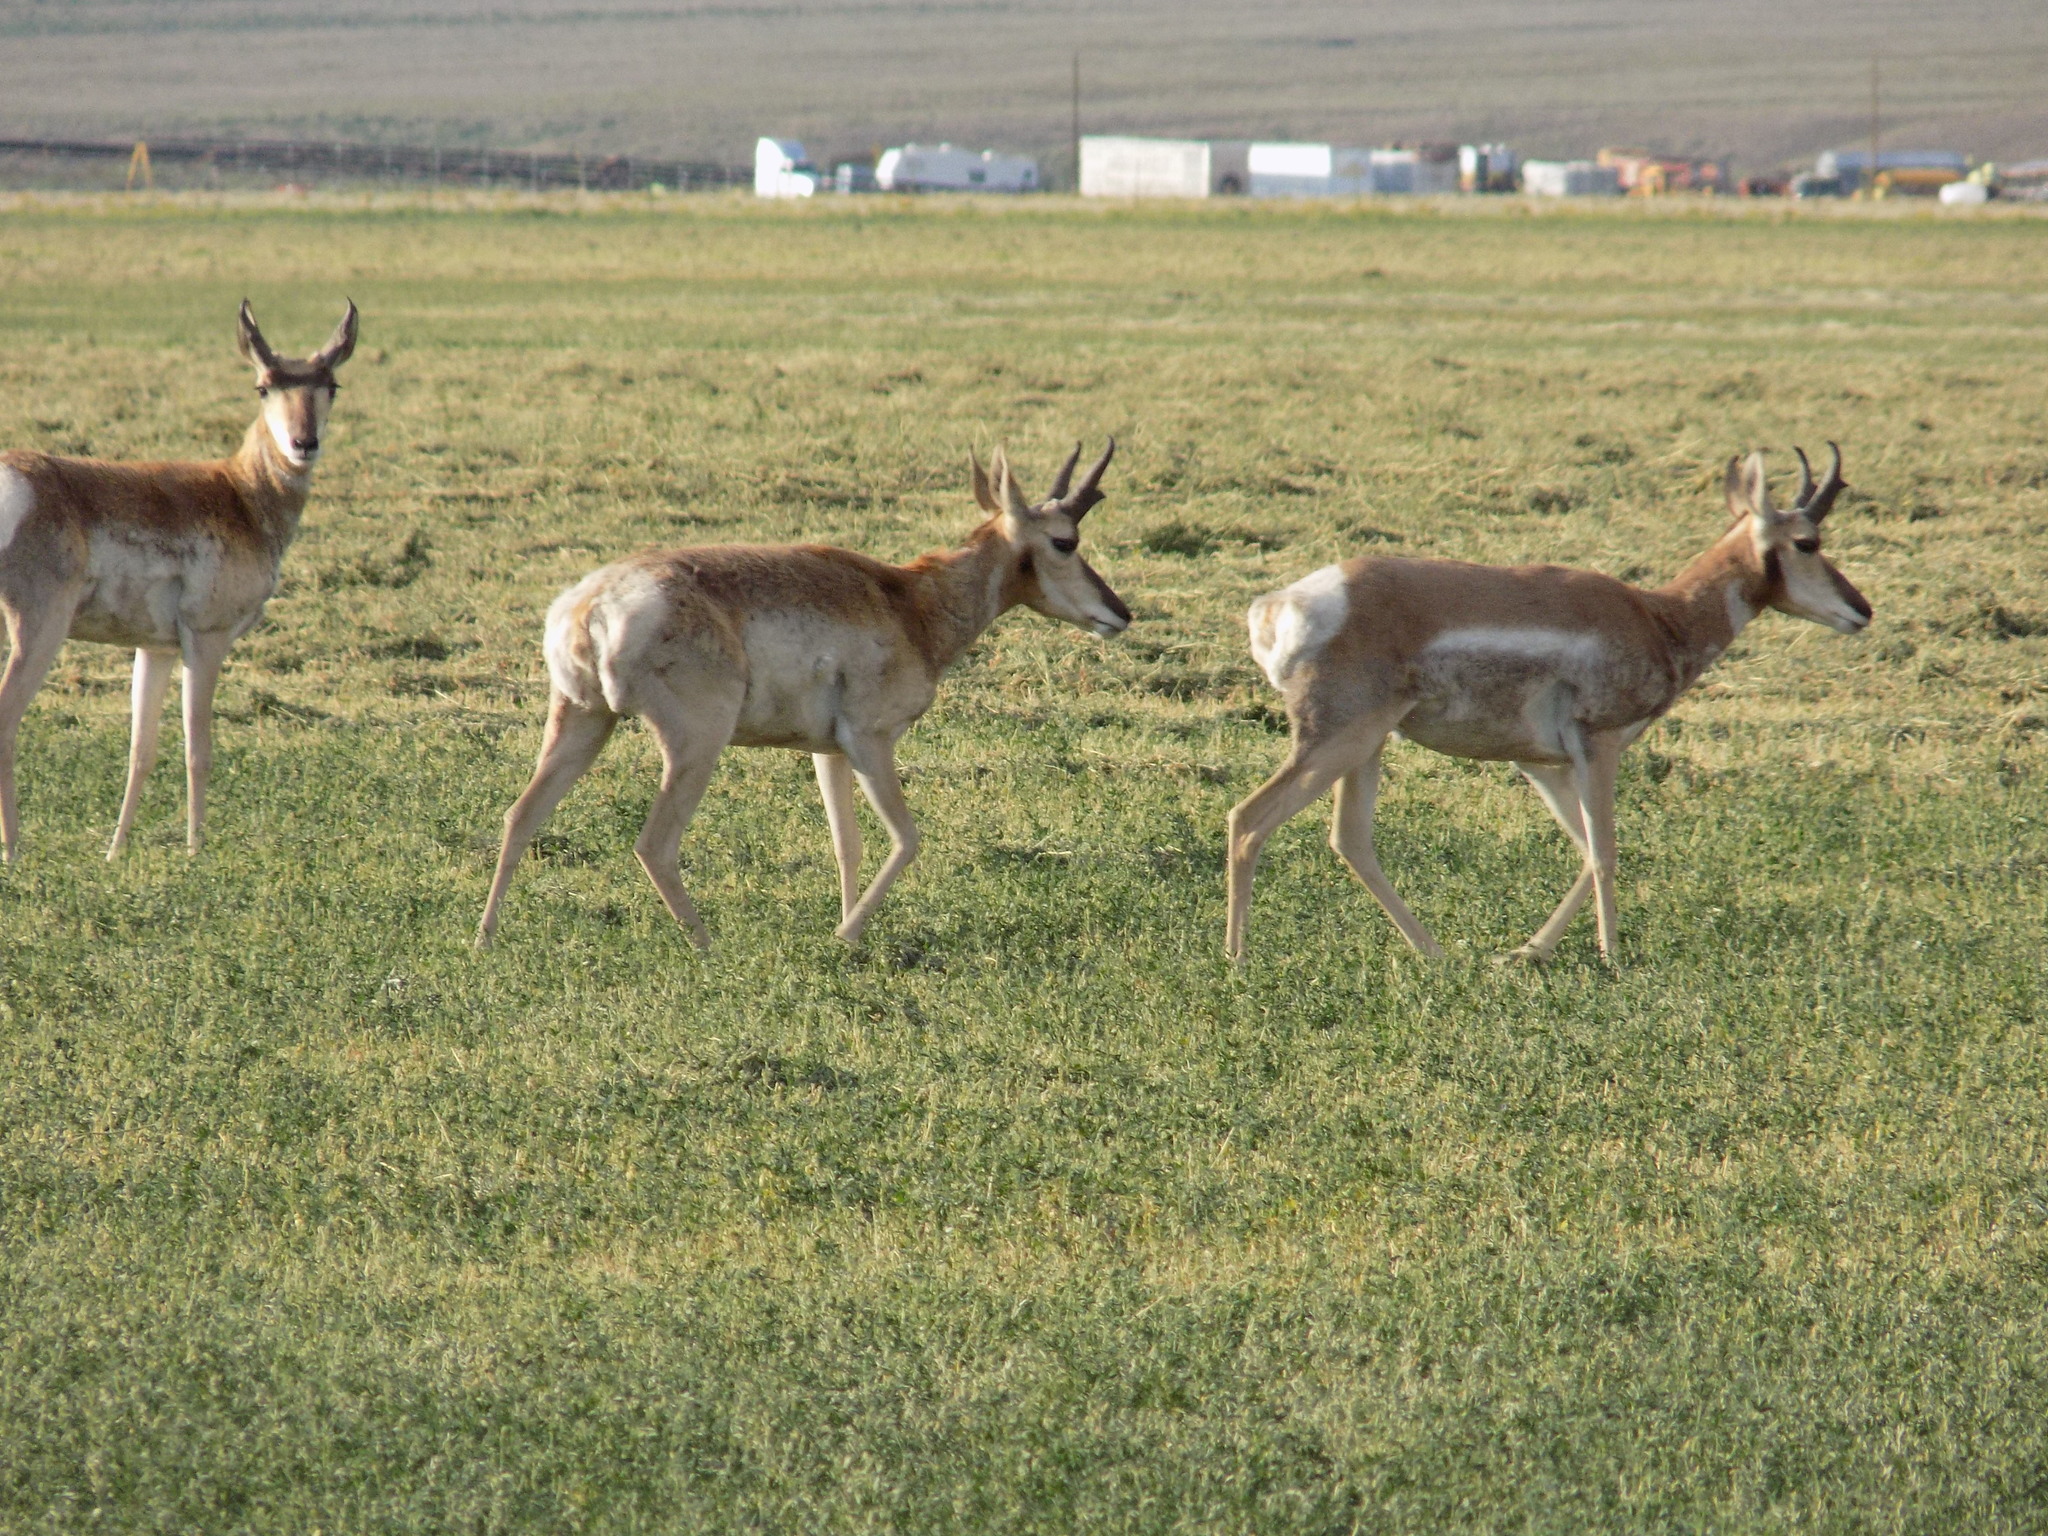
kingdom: Animalia
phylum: Chordata
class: Mammalia
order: Artiodactyla
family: Antilocapridae
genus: Antilocapra
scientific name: Antilocapra americana
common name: Pronghorn
